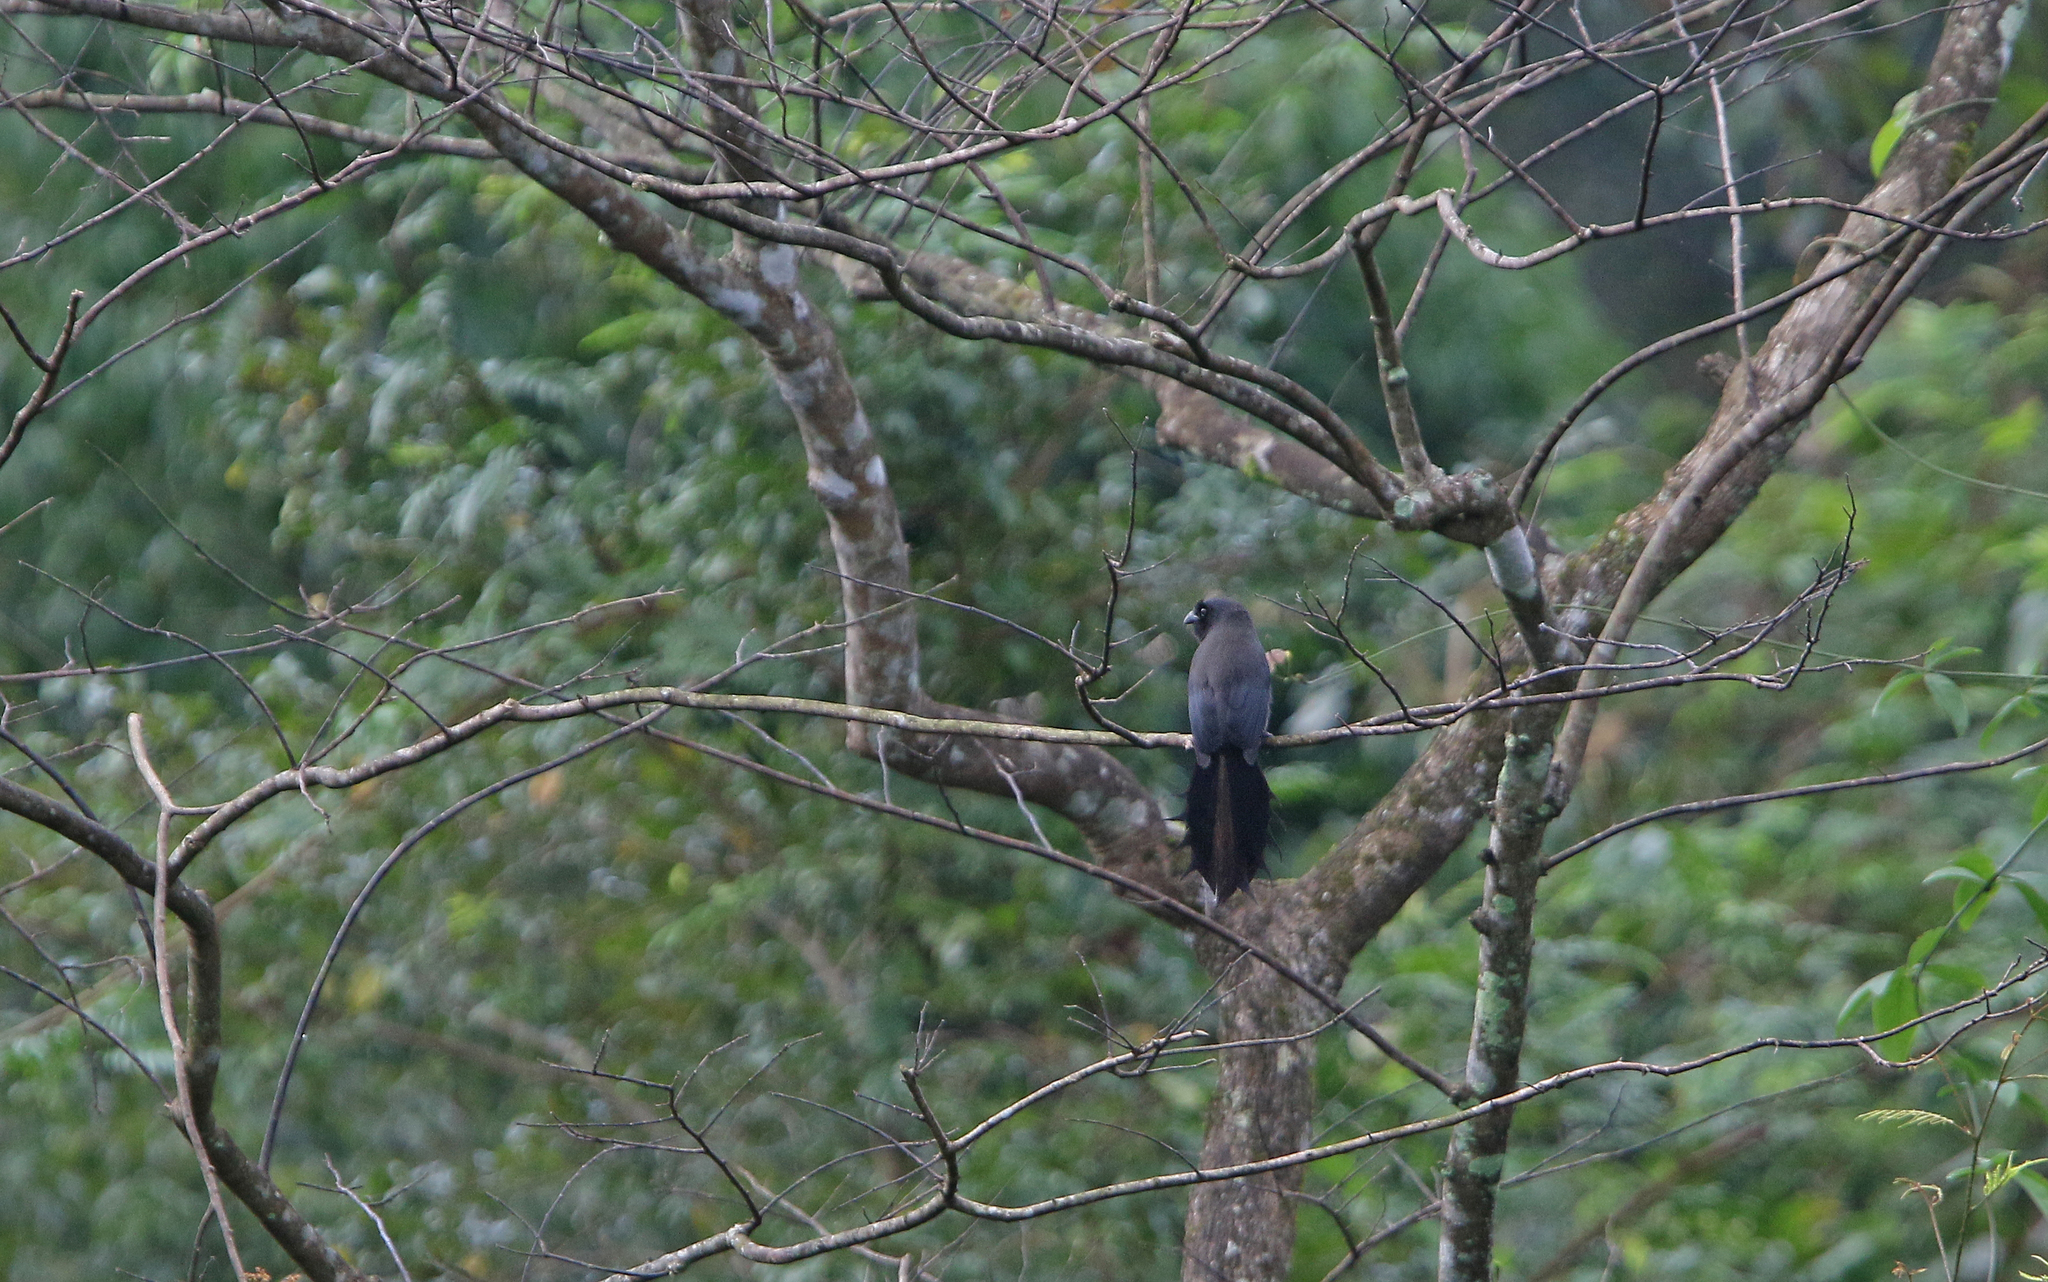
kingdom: Animalia
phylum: Chordata
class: Aves
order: Passeriformes
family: Corvidae
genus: Temnurus
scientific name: Temnurus temnurus
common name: Ratchet-tailed treepie
